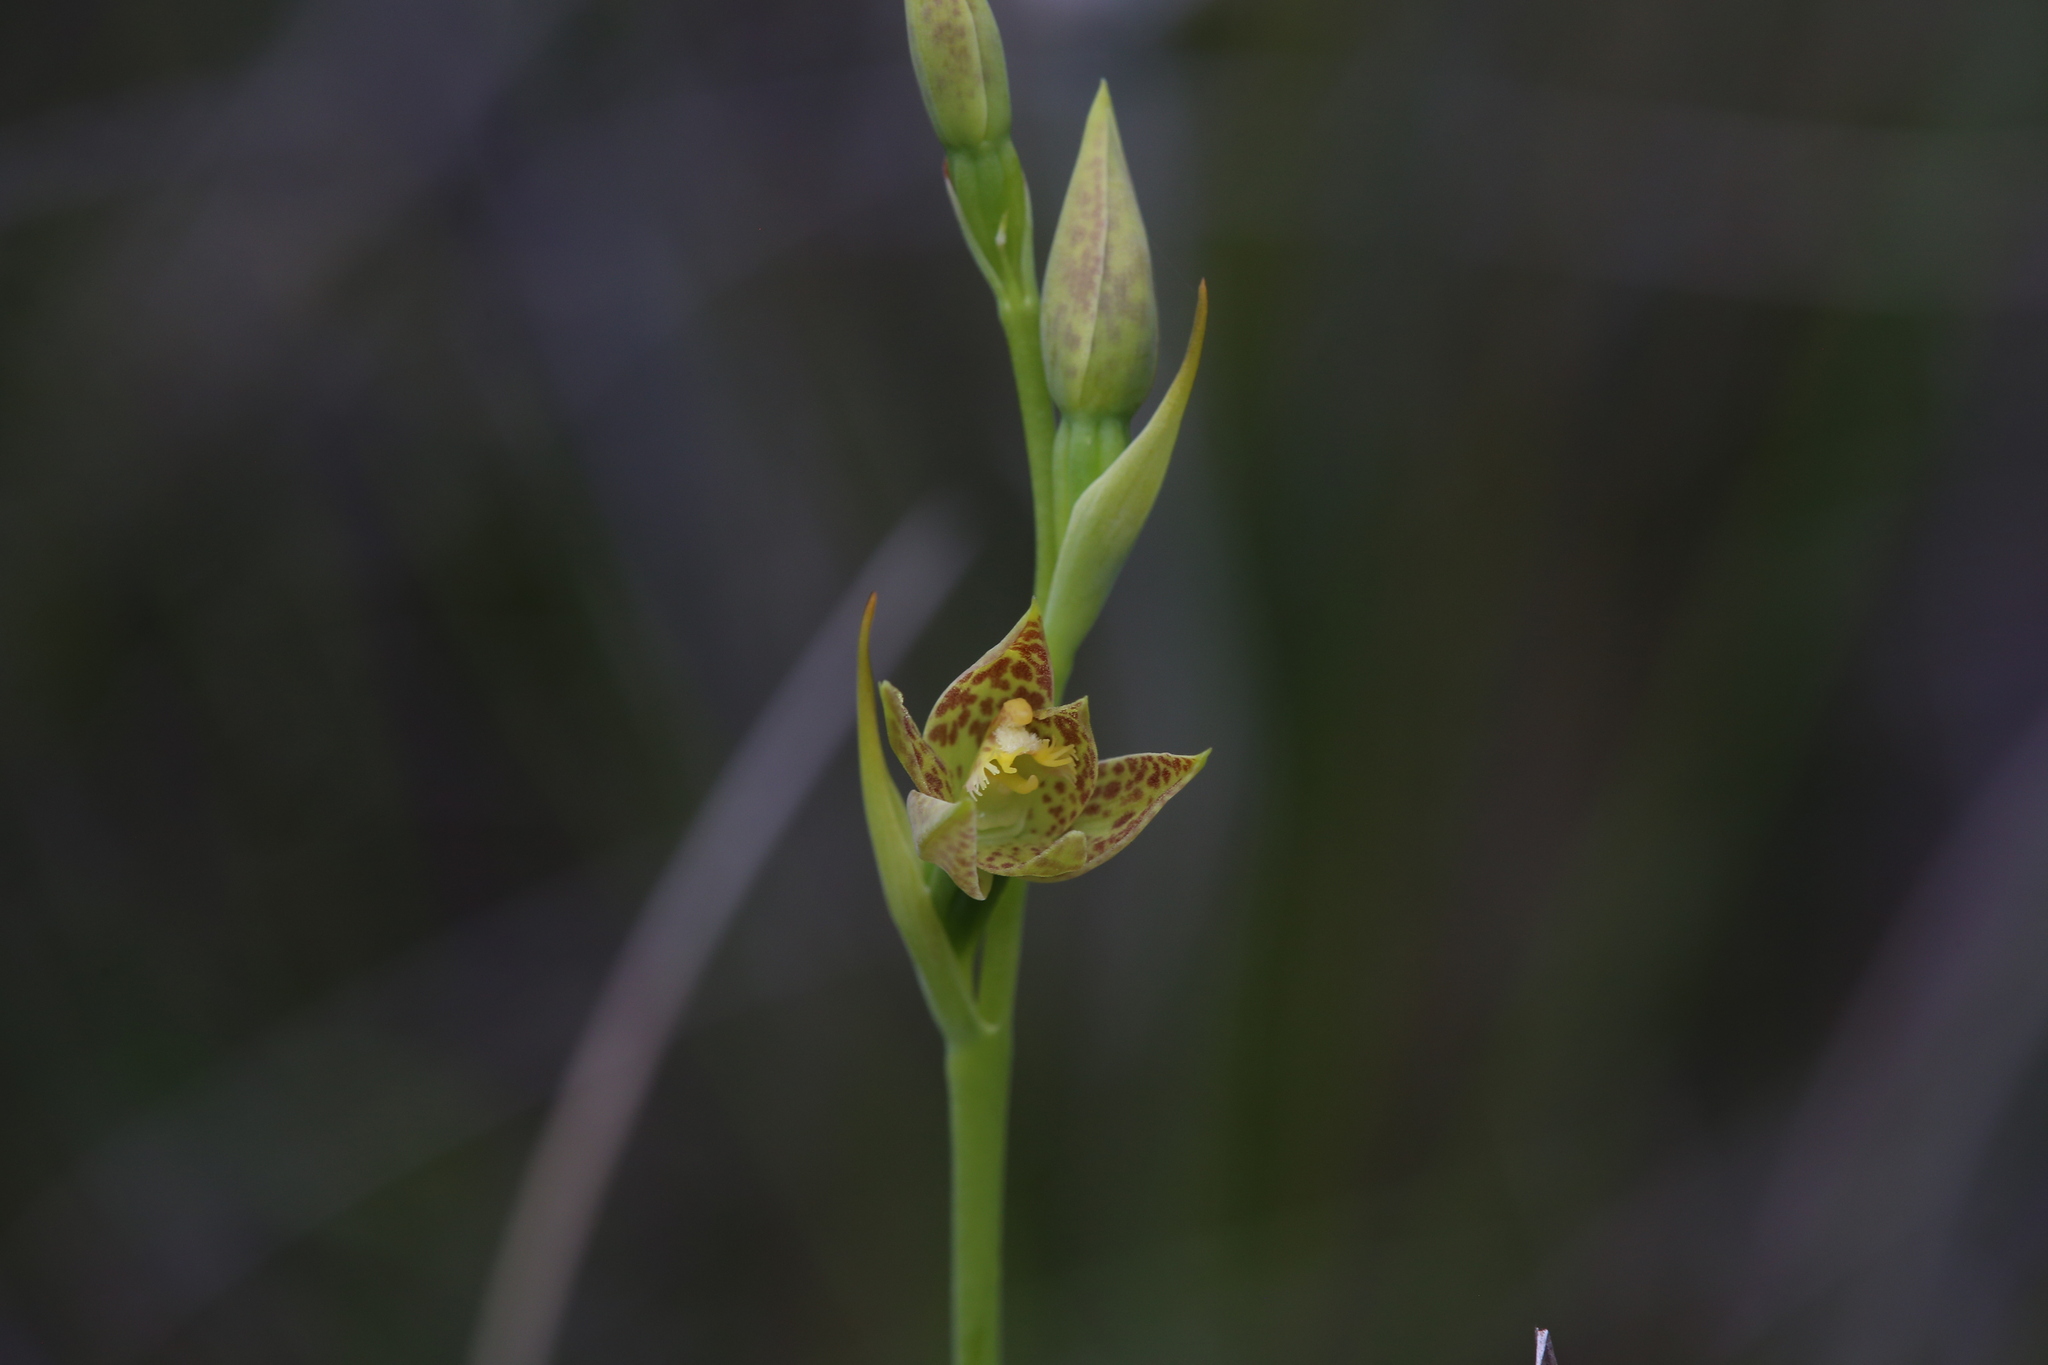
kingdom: Plantae
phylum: Tracheophyta
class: Liliopsida
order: Asparagales
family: Orchidaceae
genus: Thelymitra
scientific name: Thelymitra benthamiana
